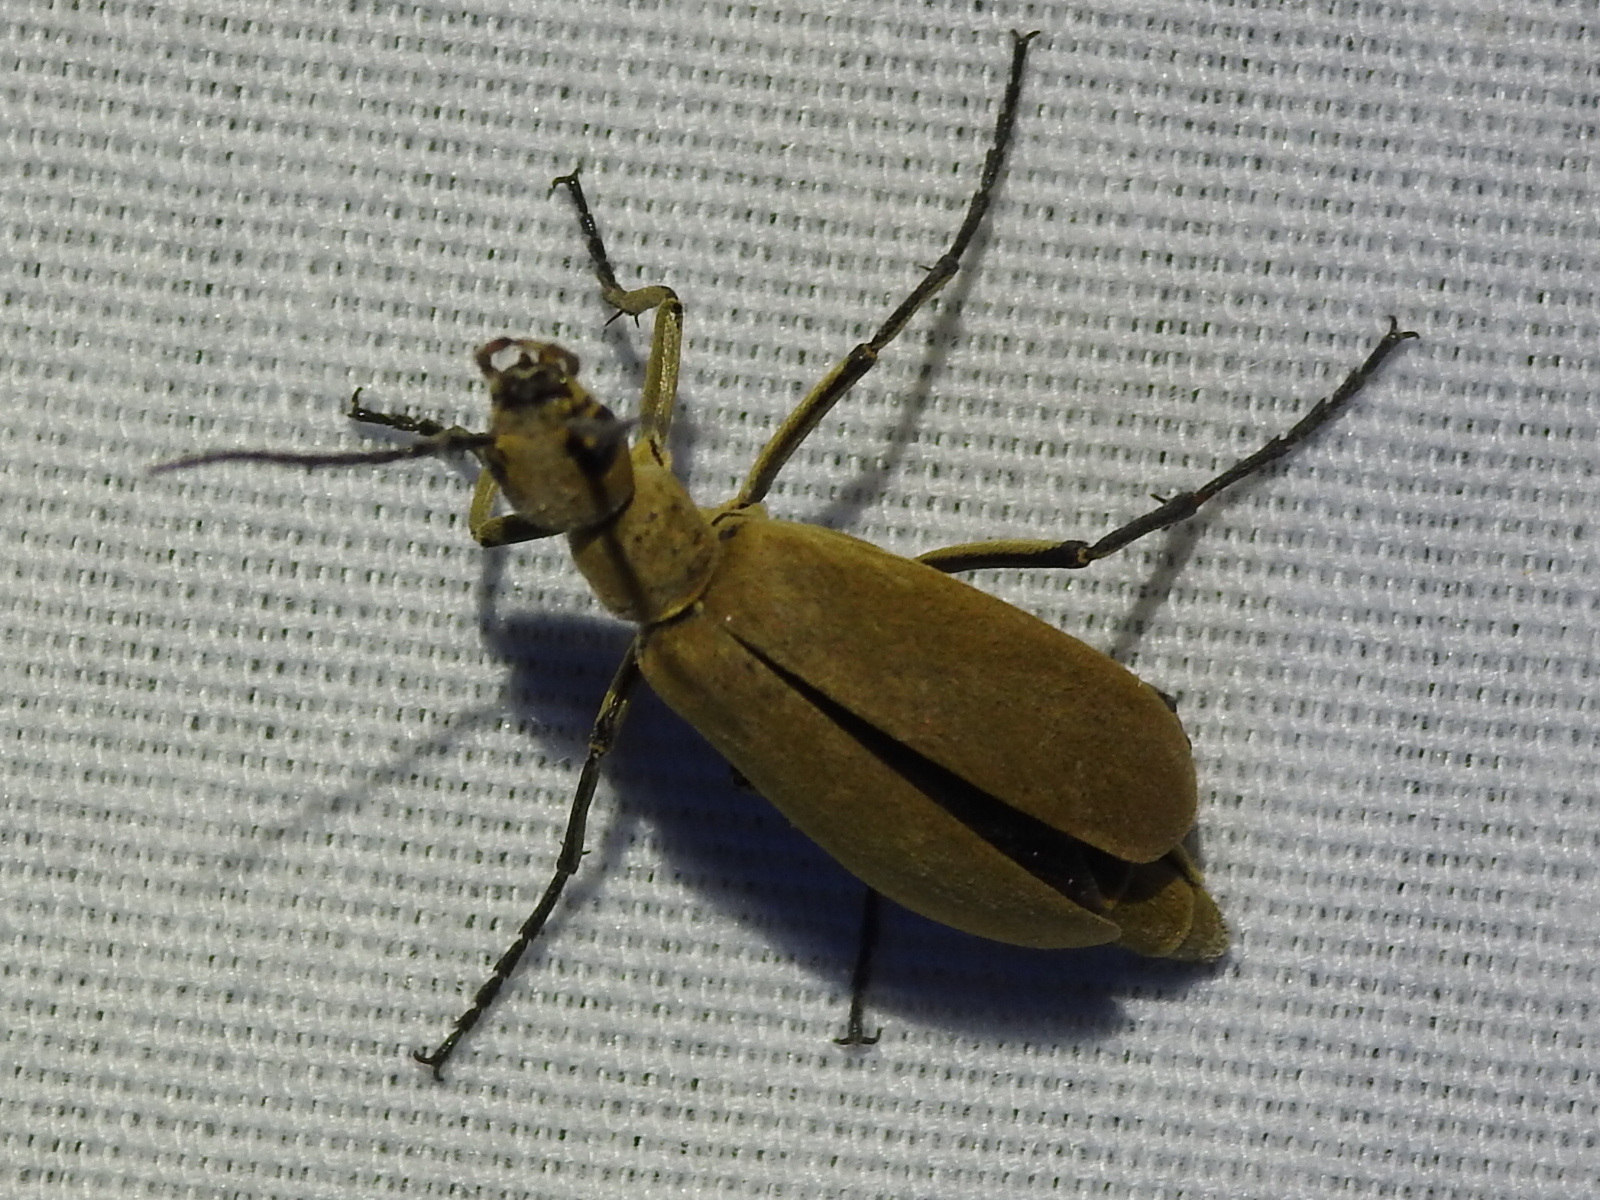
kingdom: Animalia
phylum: Arthropoda
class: Insecta
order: Coleoptera
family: Meloidae
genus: Epicauta
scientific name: Epicauta immaculata
